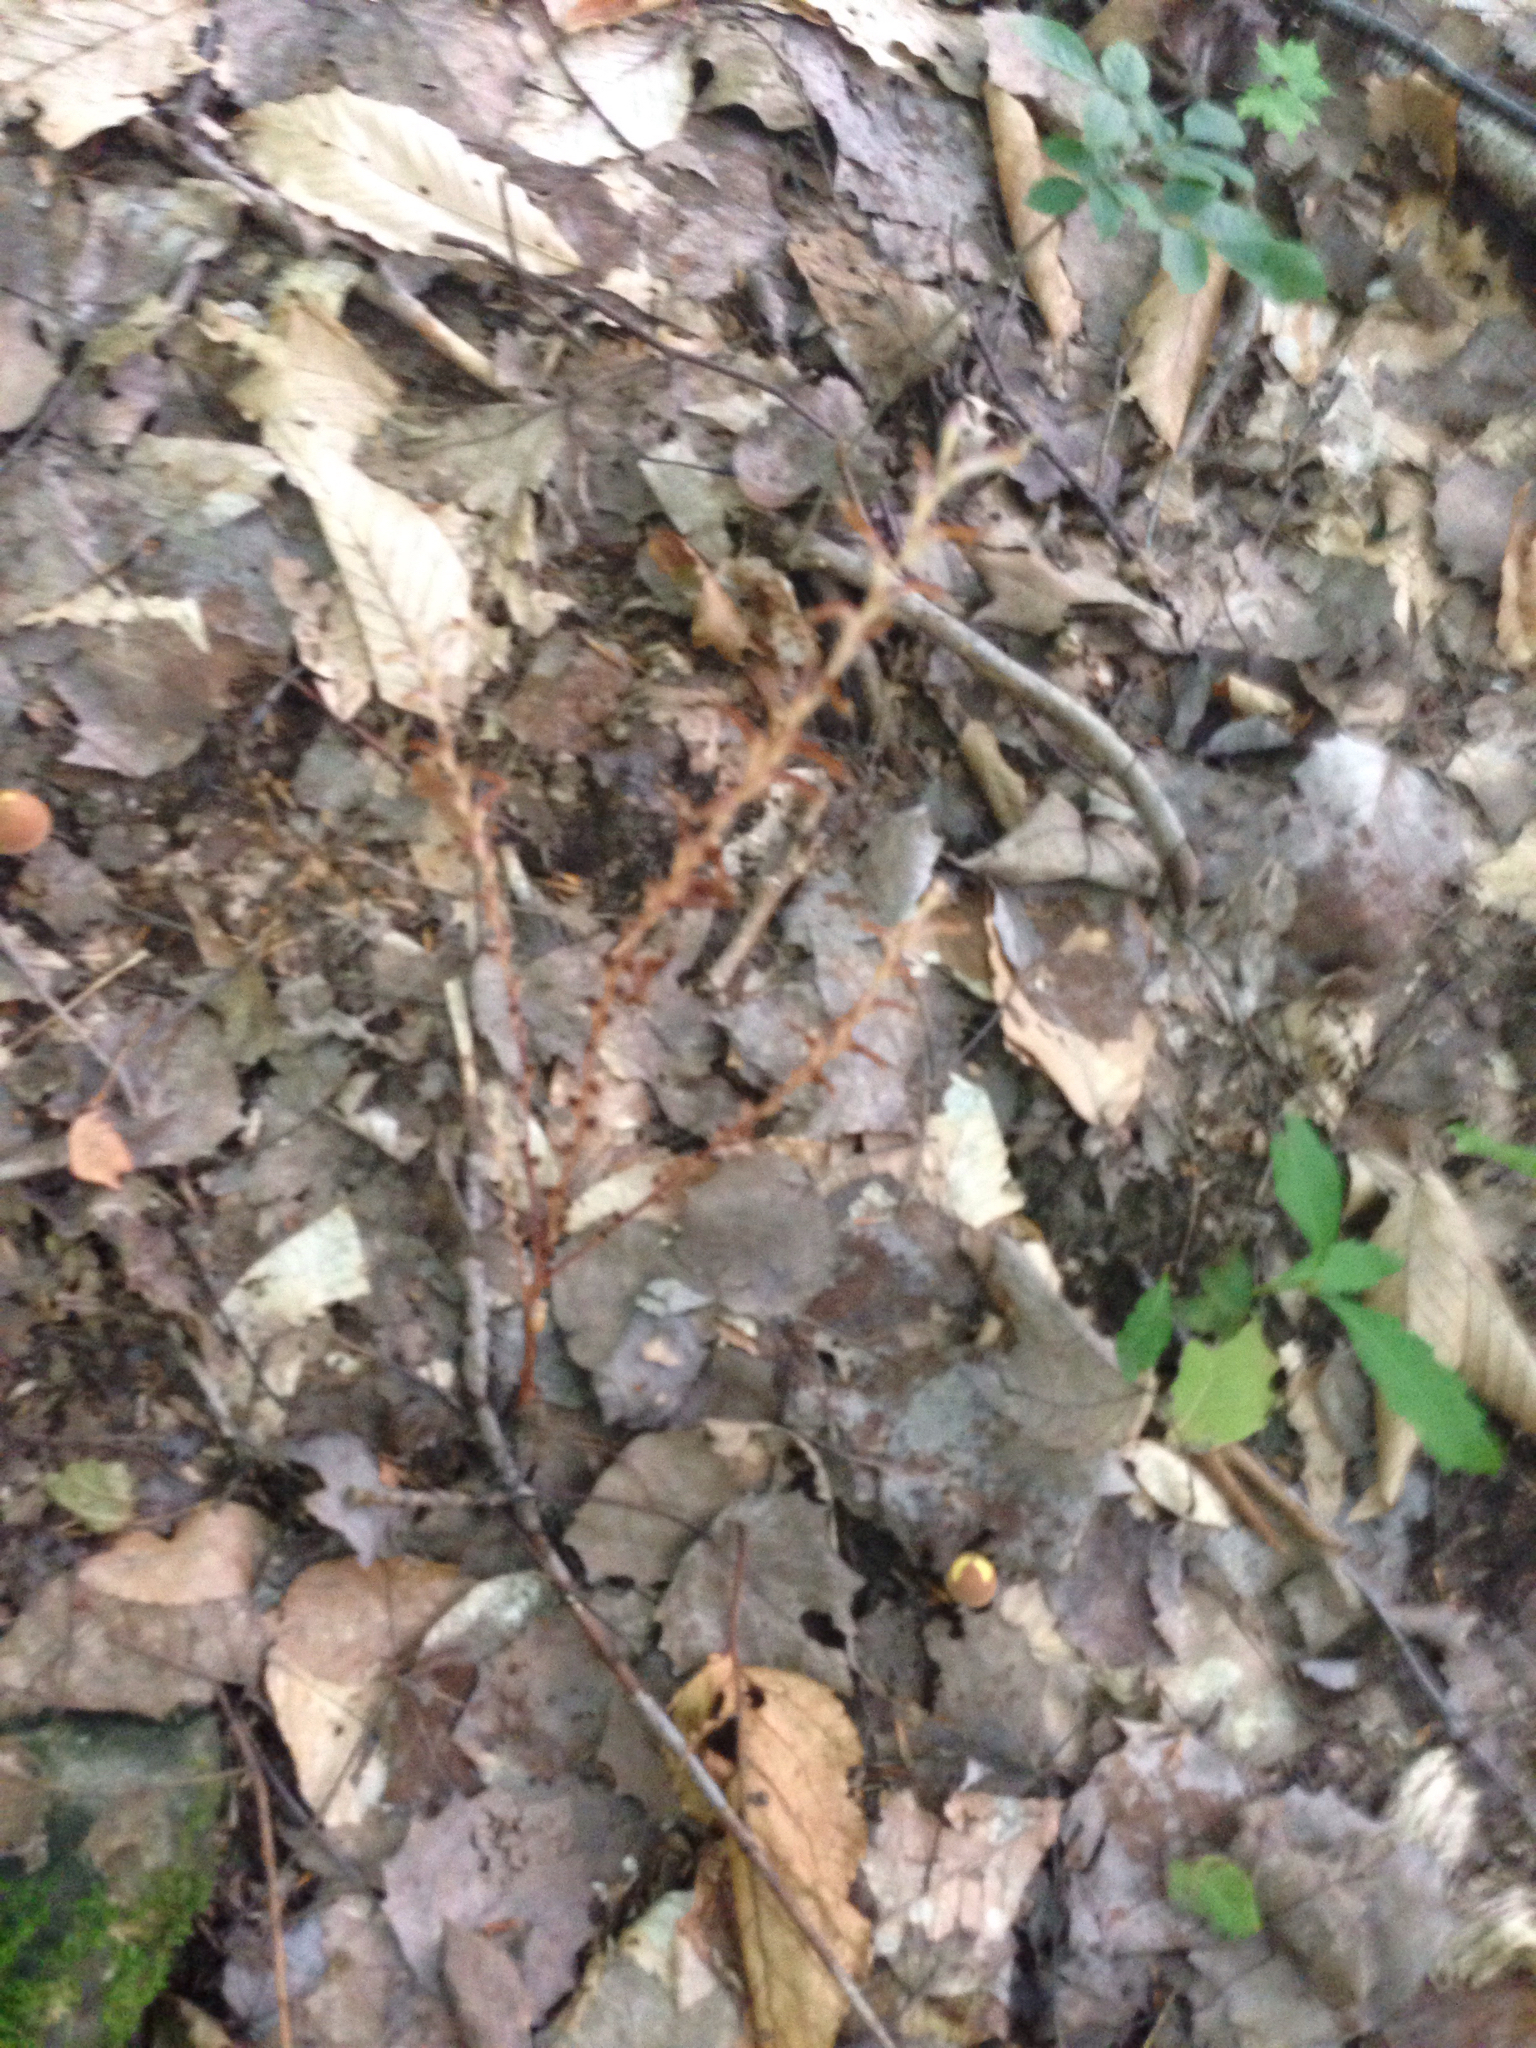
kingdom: Plantae
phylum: Tracheophyta
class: Magnoliopsida
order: Lamiales
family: Orobanchaceae
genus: Epifagus
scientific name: Epifagus virginiana
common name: Beechdrops
